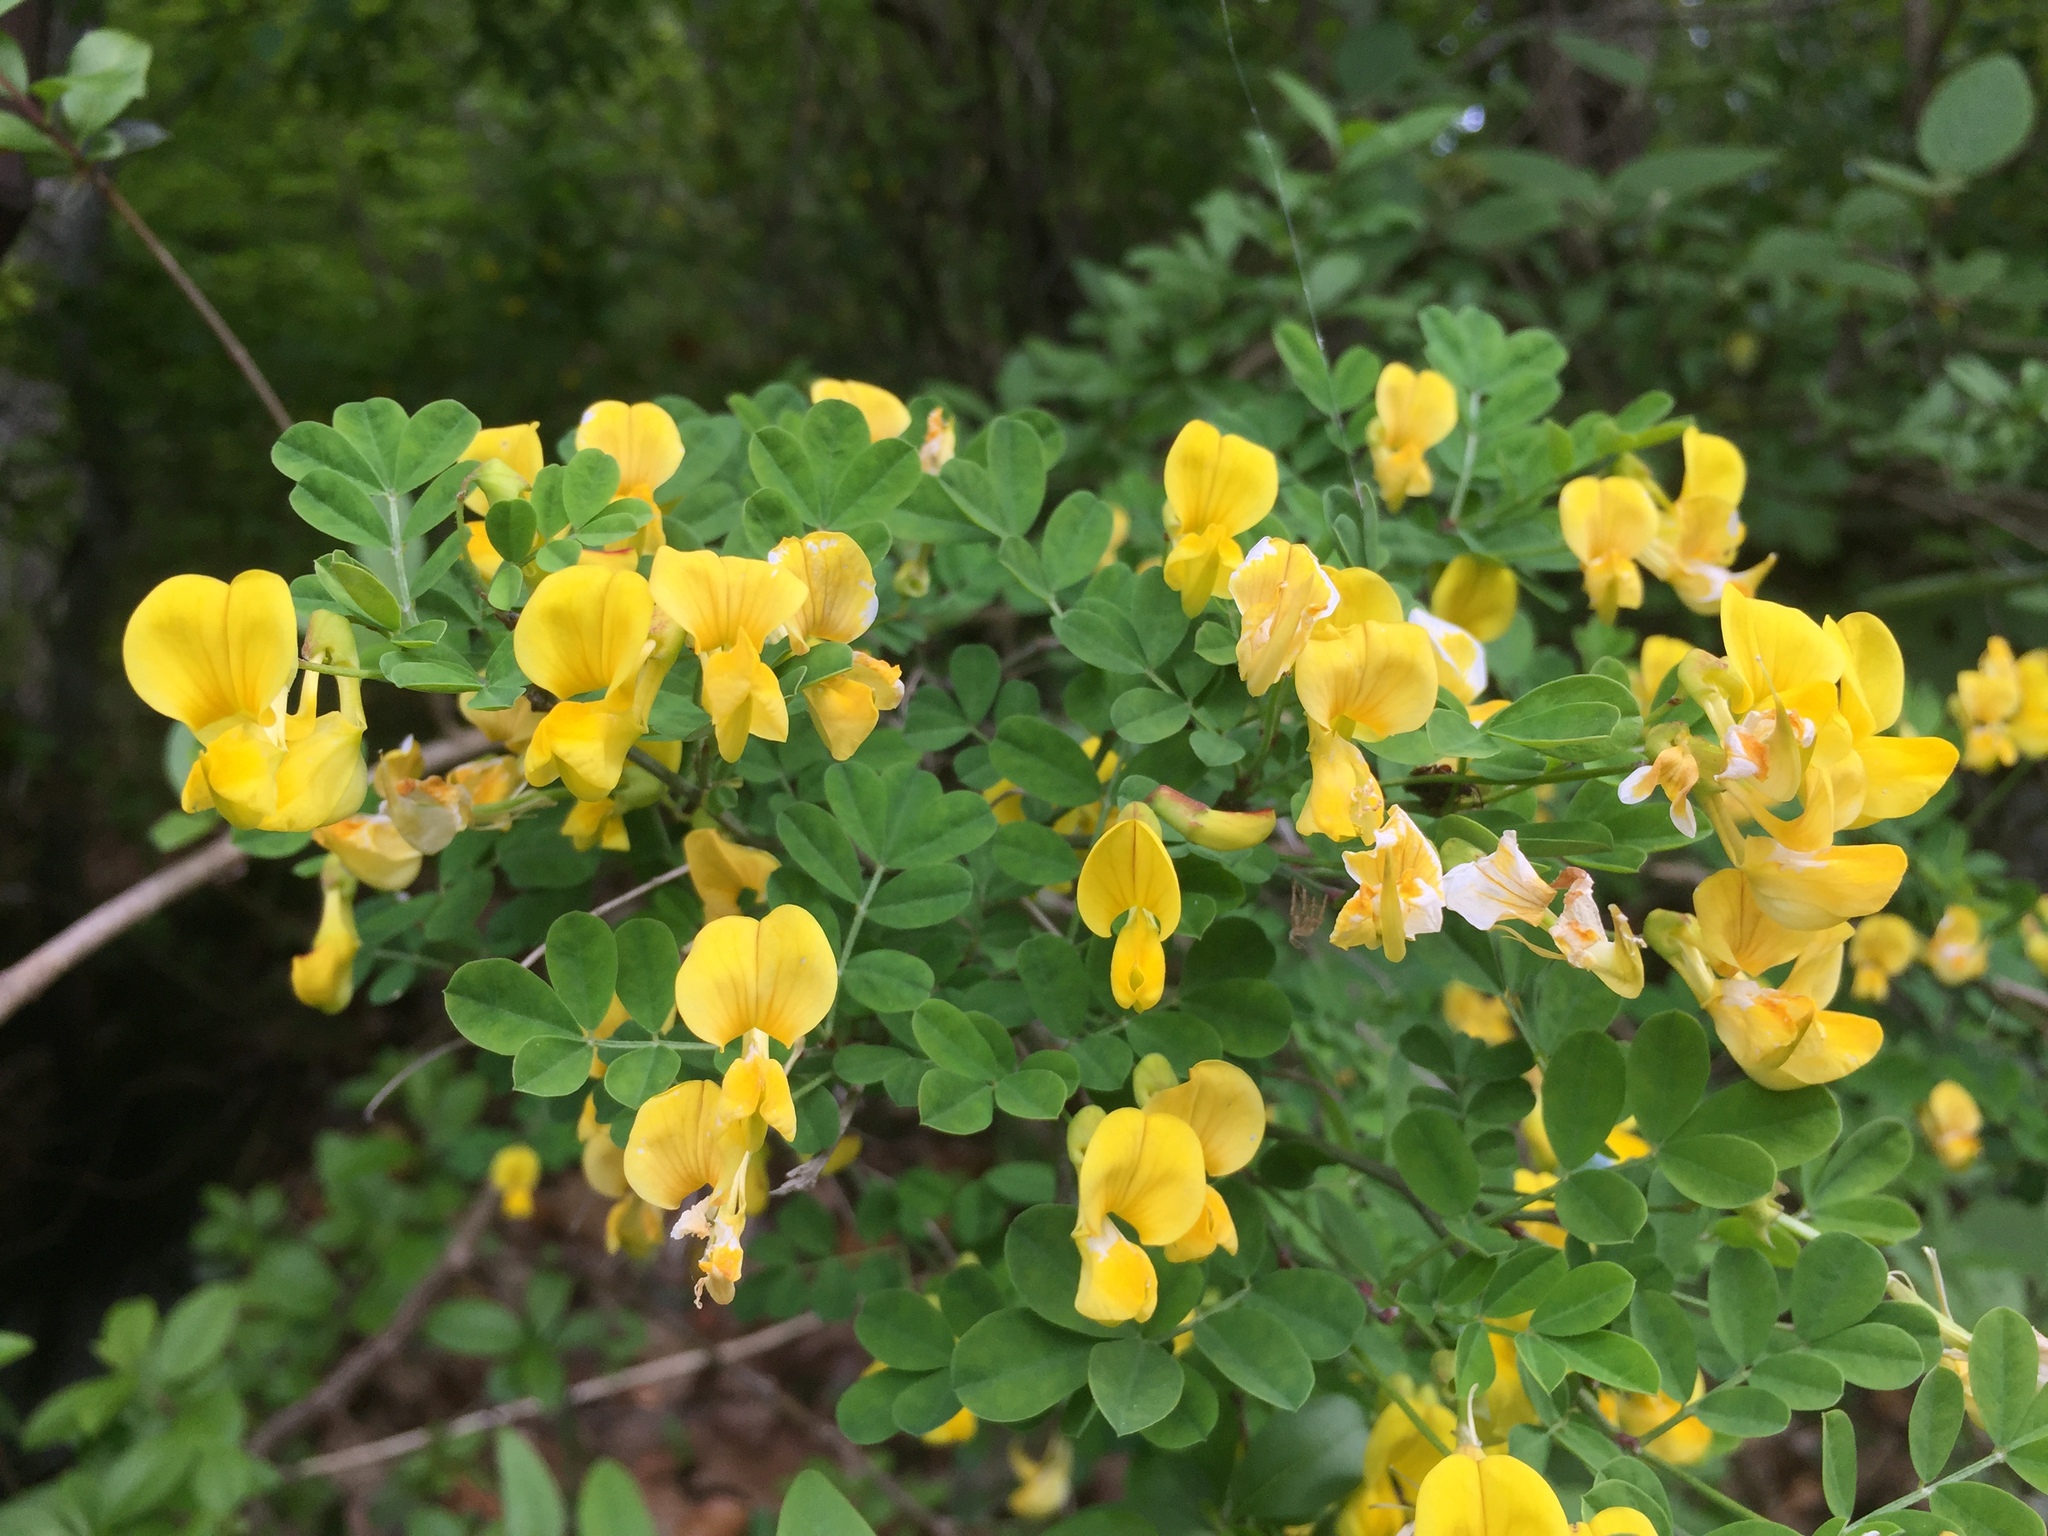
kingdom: Plantae
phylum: Tracheophyta
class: Magnoliopsida
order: Fabales
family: Fabaceae
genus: Hippocrepis
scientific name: Hippocrepis emerus
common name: Scorpion senna
